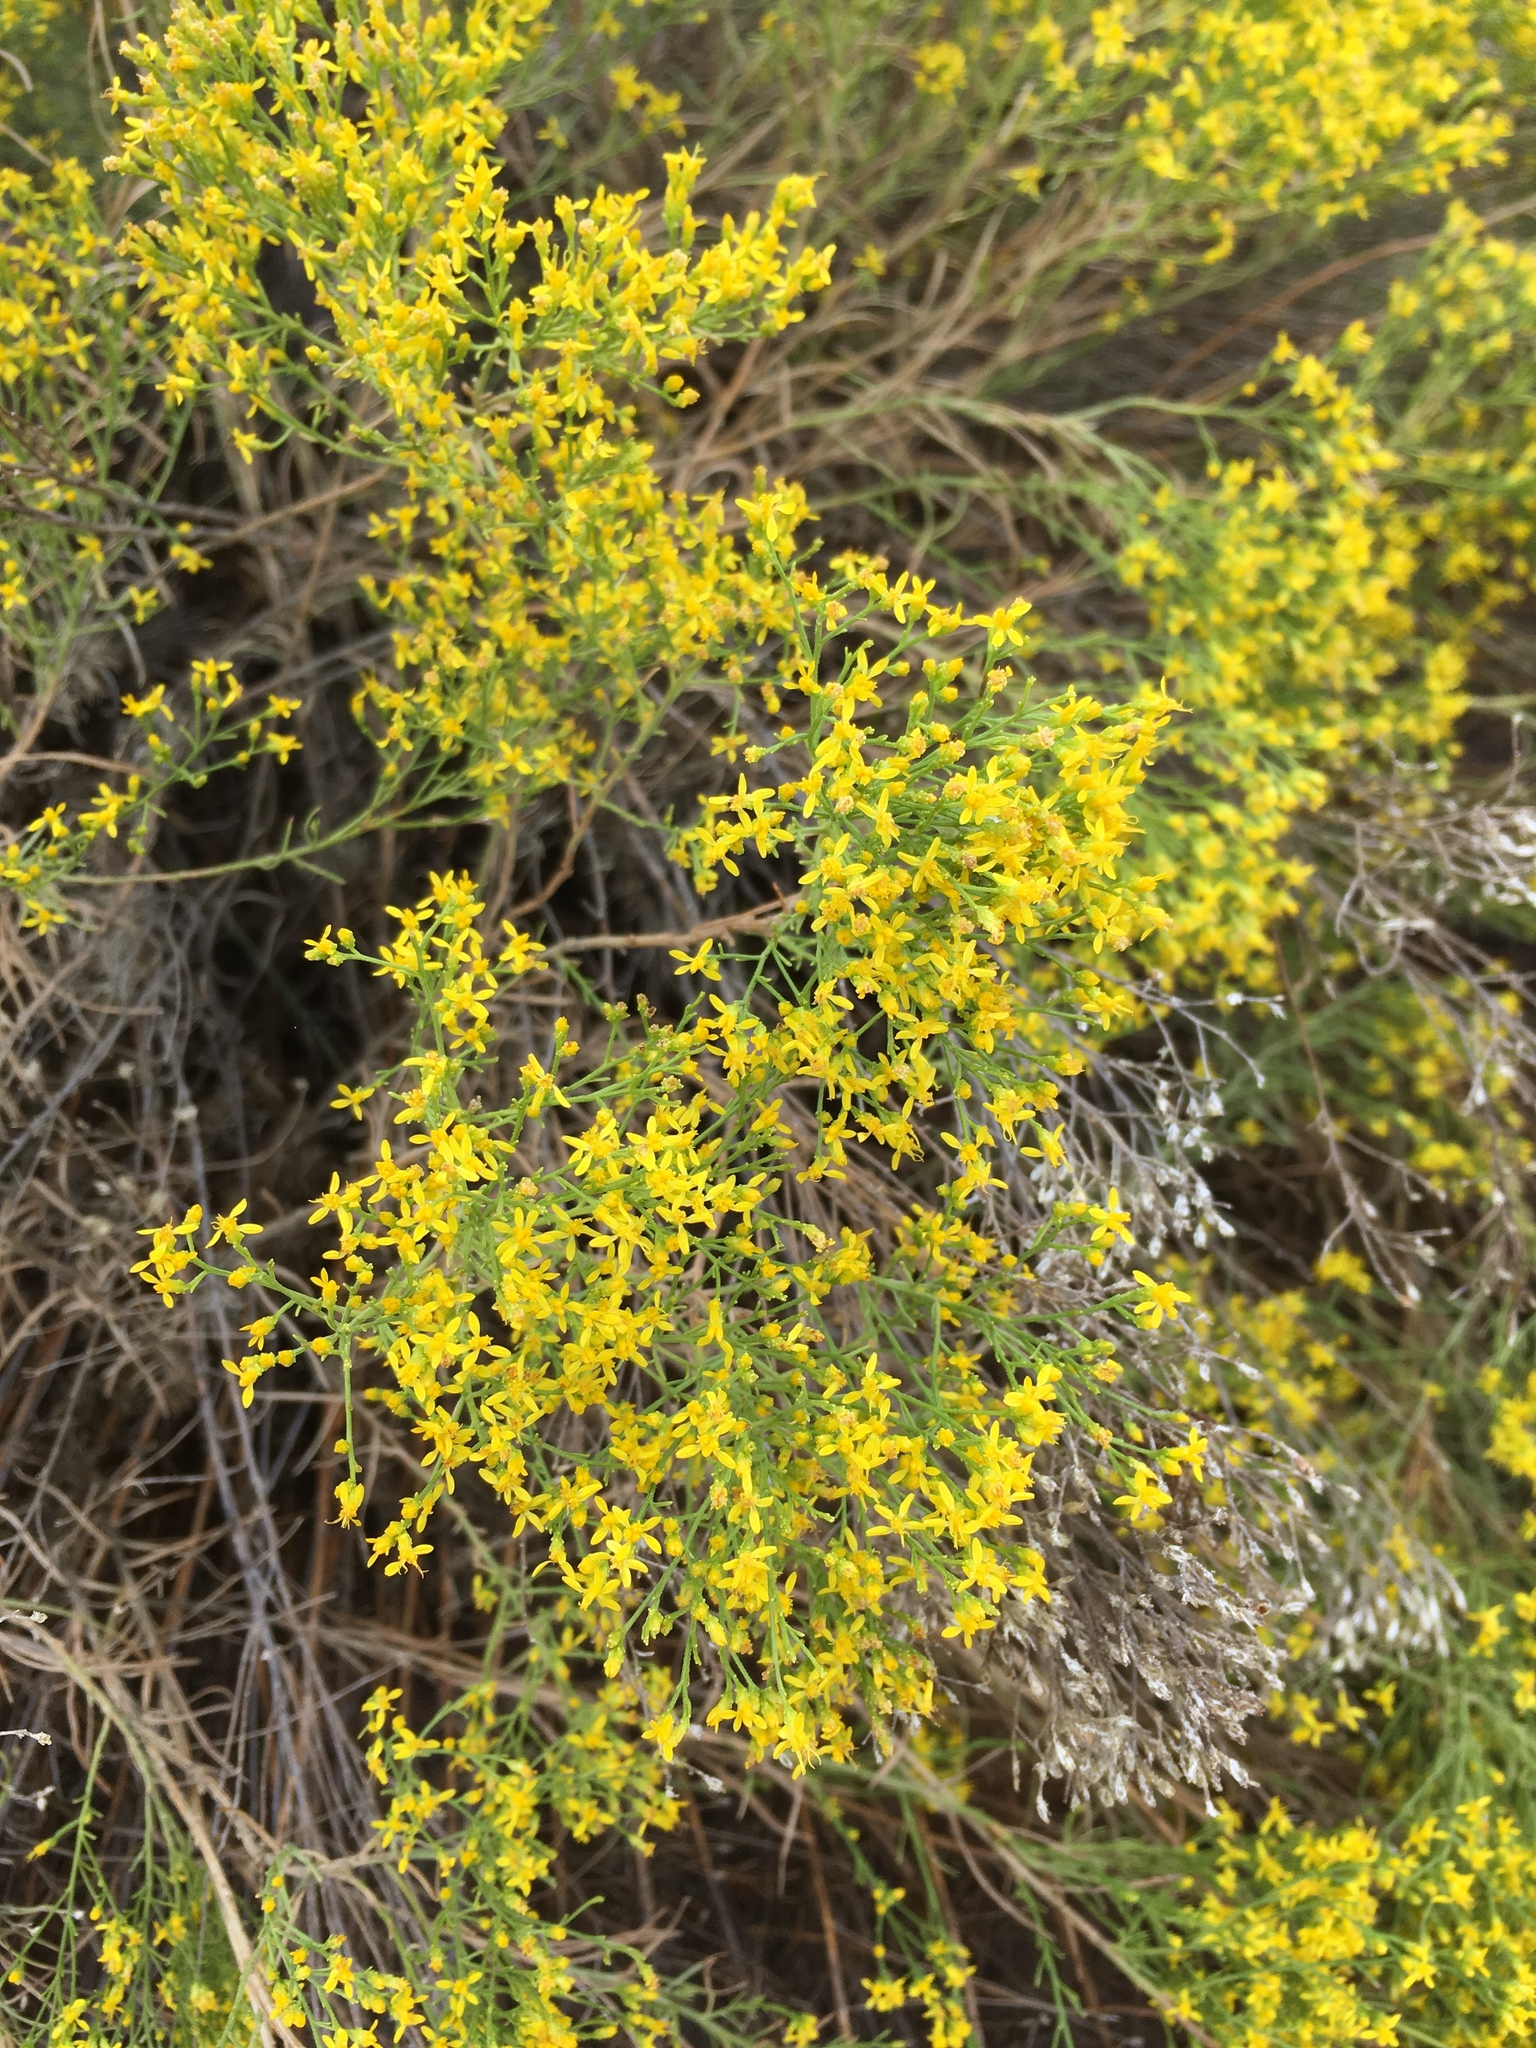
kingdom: Plantae
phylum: Tracheophyta
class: Magnoliopsida
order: Asterales
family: Asteraceae
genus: Gutierrezia
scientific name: Gutierrezia sarothrae
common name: Broom snakeweed
